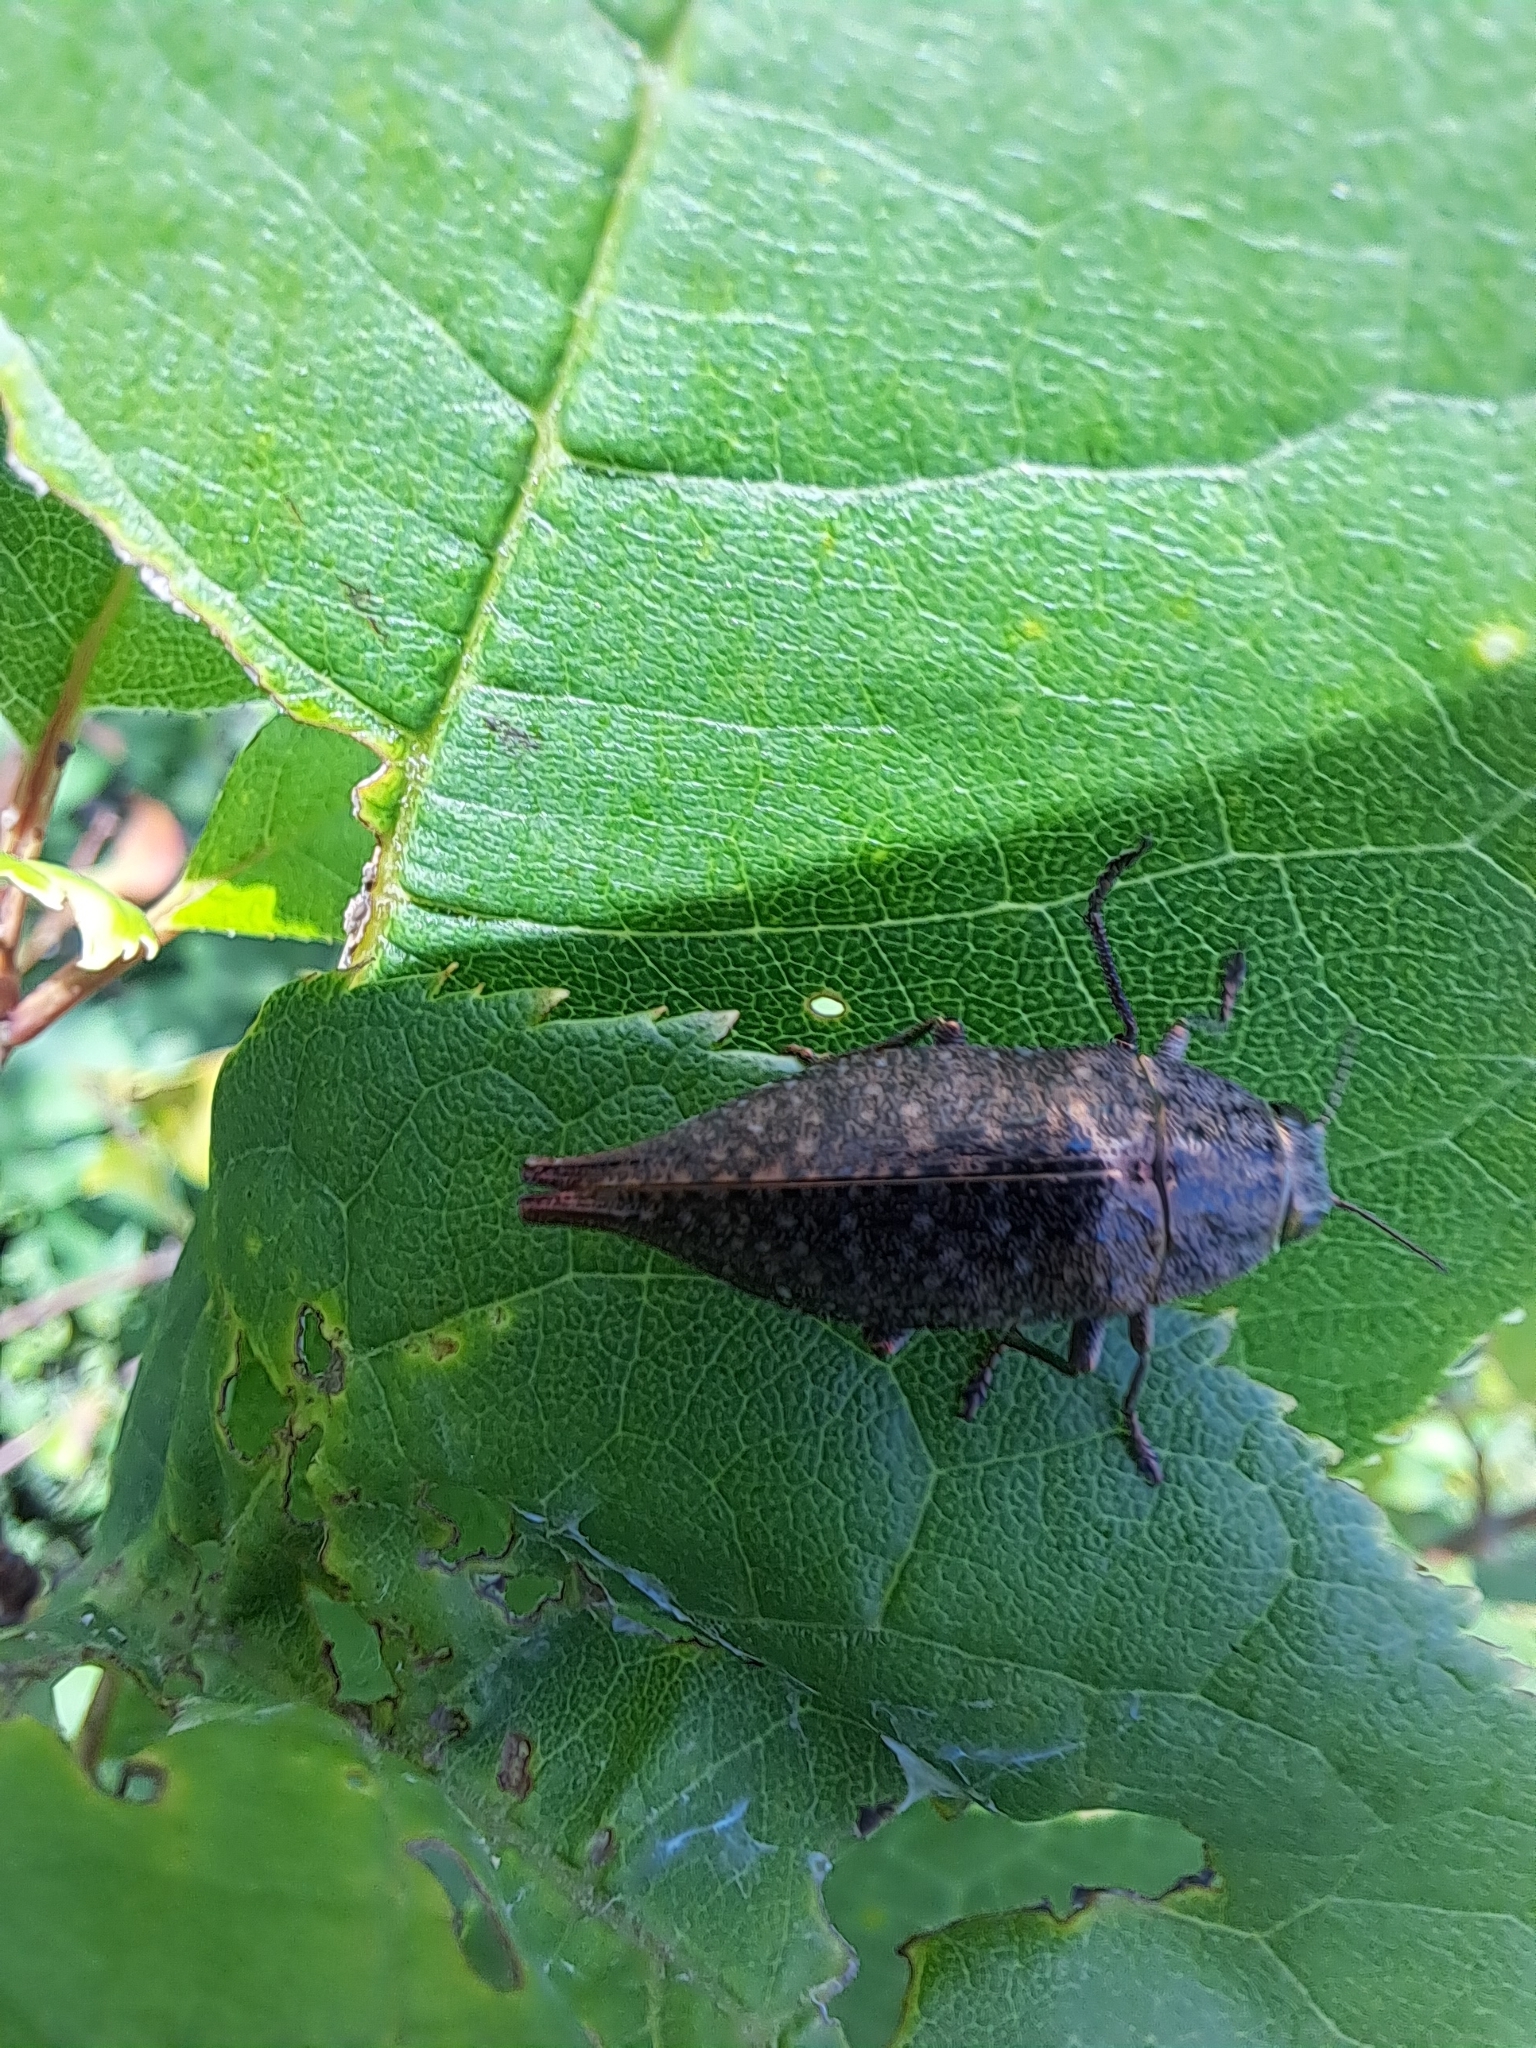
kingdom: Animalia
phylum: Arthropoda
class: Insecta
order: Coleoptera
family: Buprestidae
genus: Dicerca
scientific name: Dicerca caudata
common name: Tailed jewel borer
